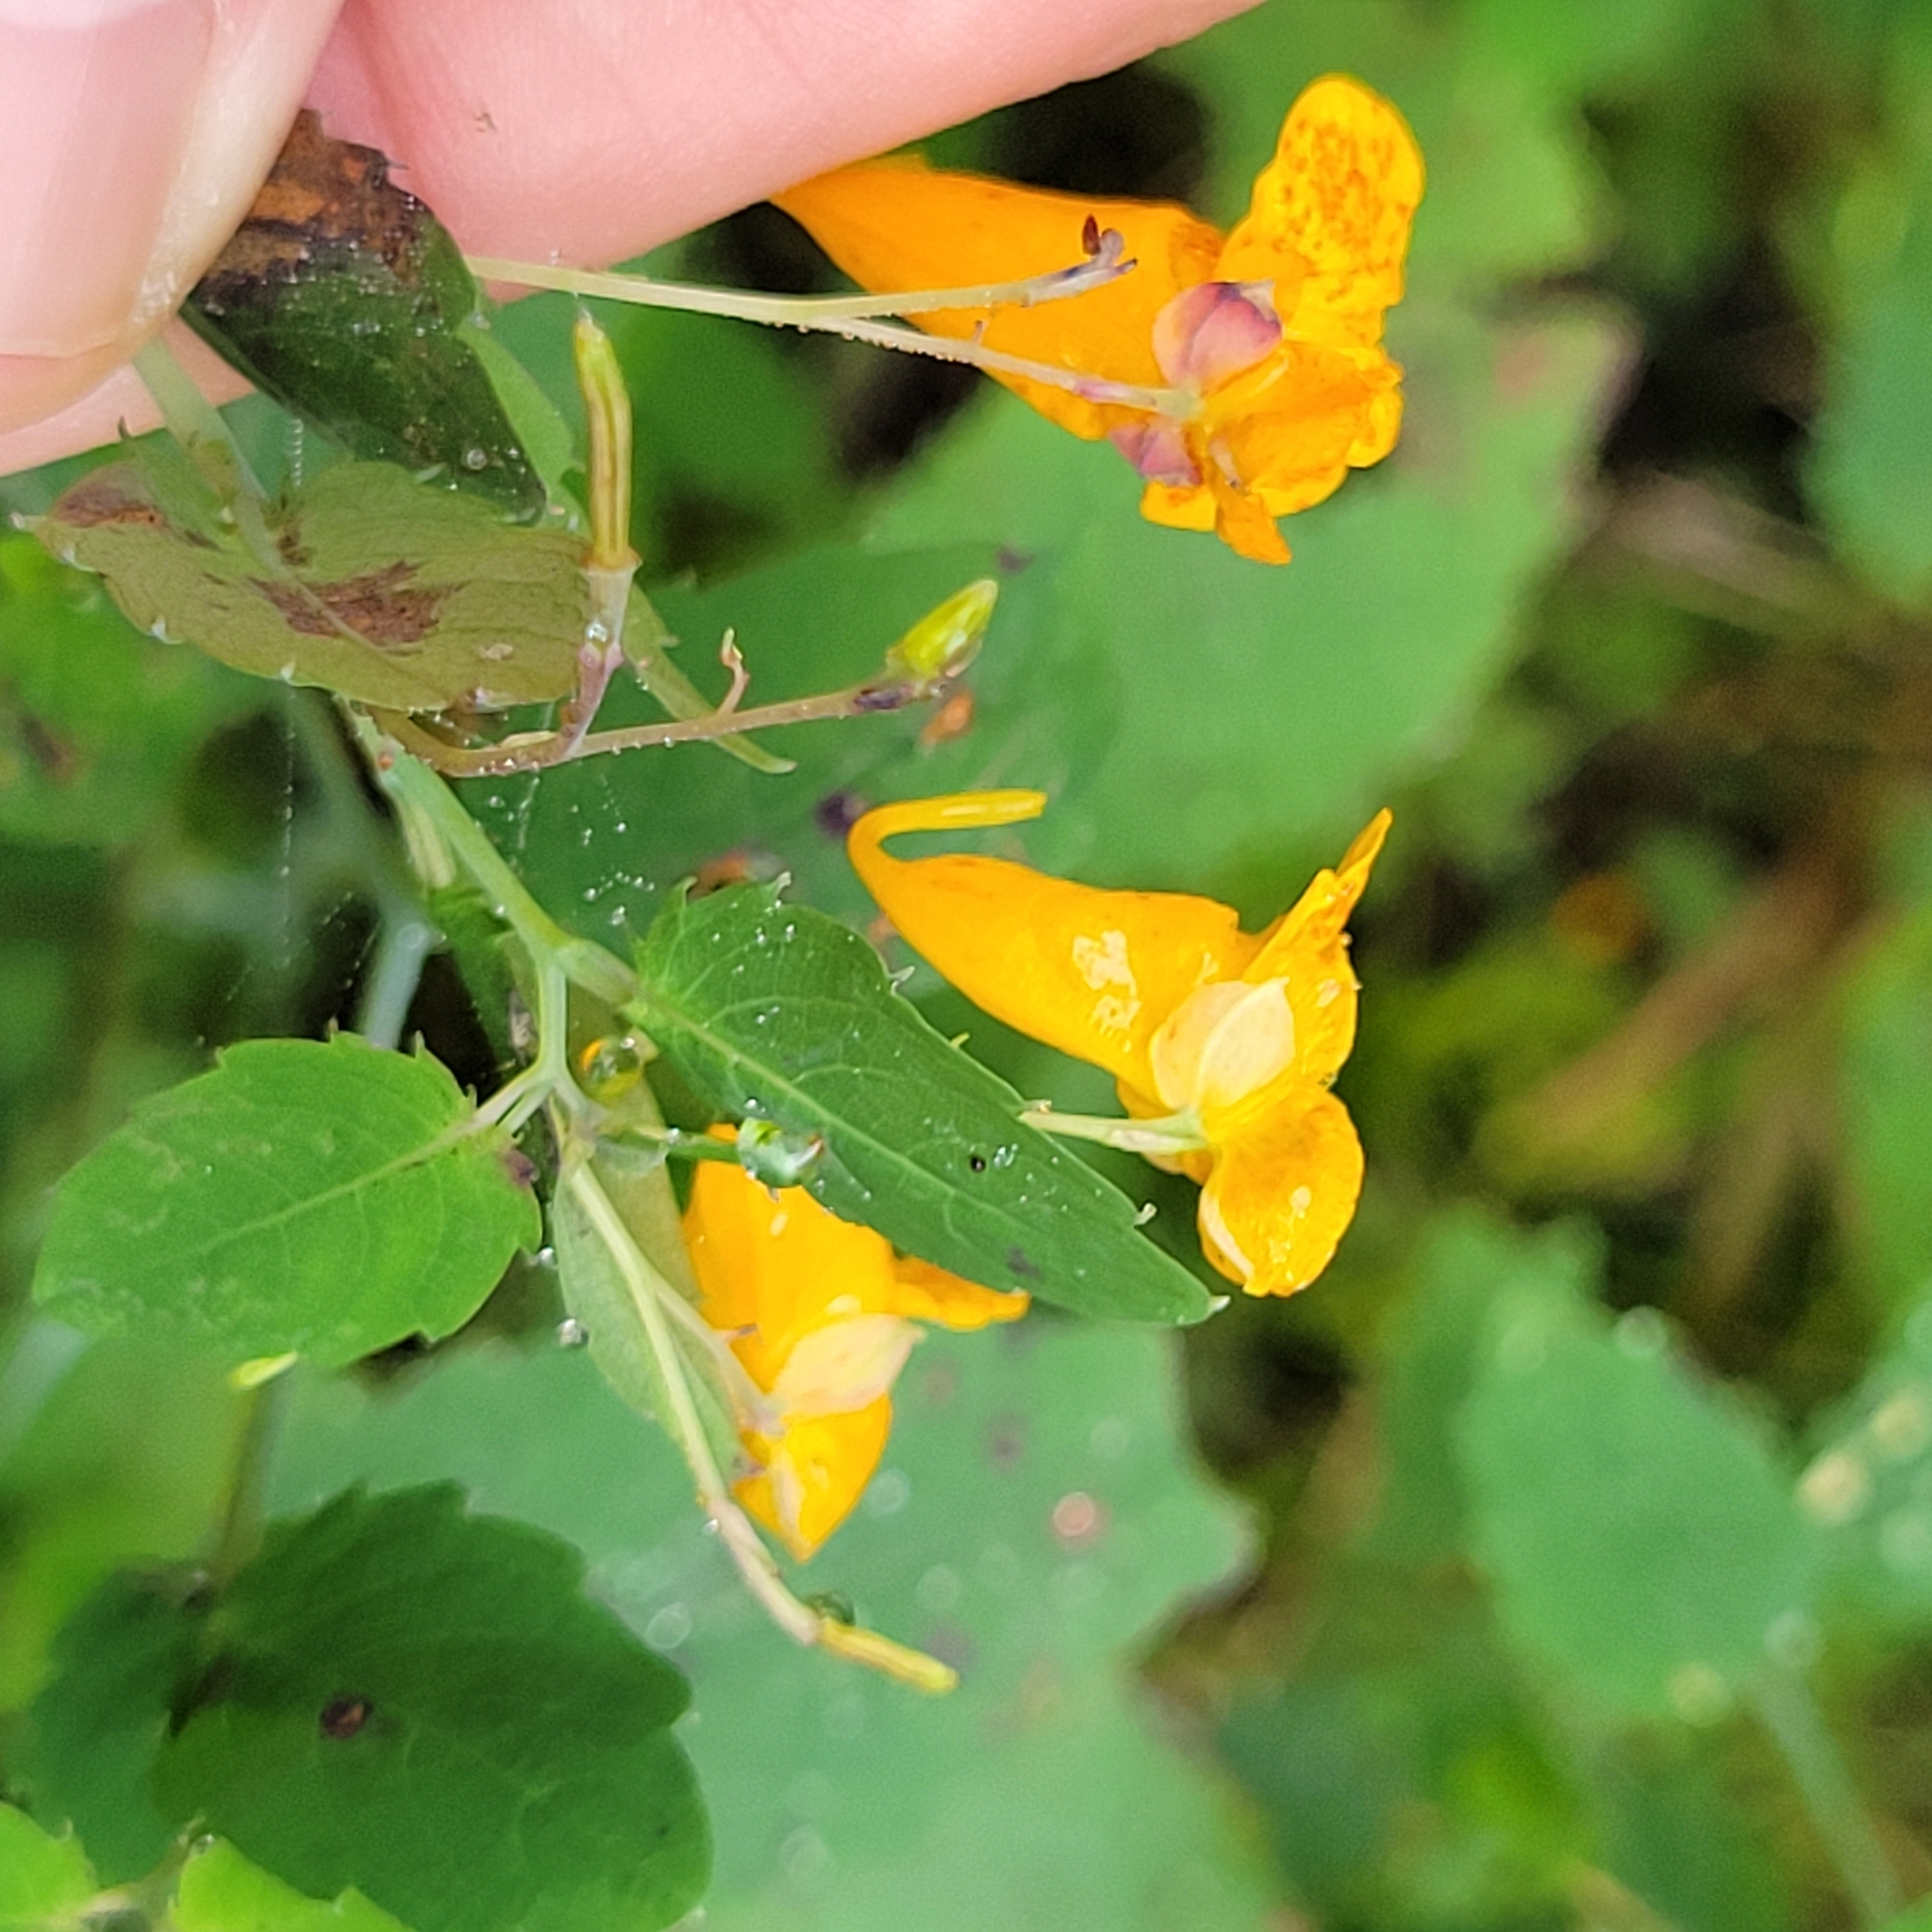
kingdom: Plantae
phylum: Tracheophyta
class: Magnoliopsida
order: Ericales
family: Balsaminaceae
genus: Impatiens
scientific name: Impatiens capensis
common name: Orange balsam
